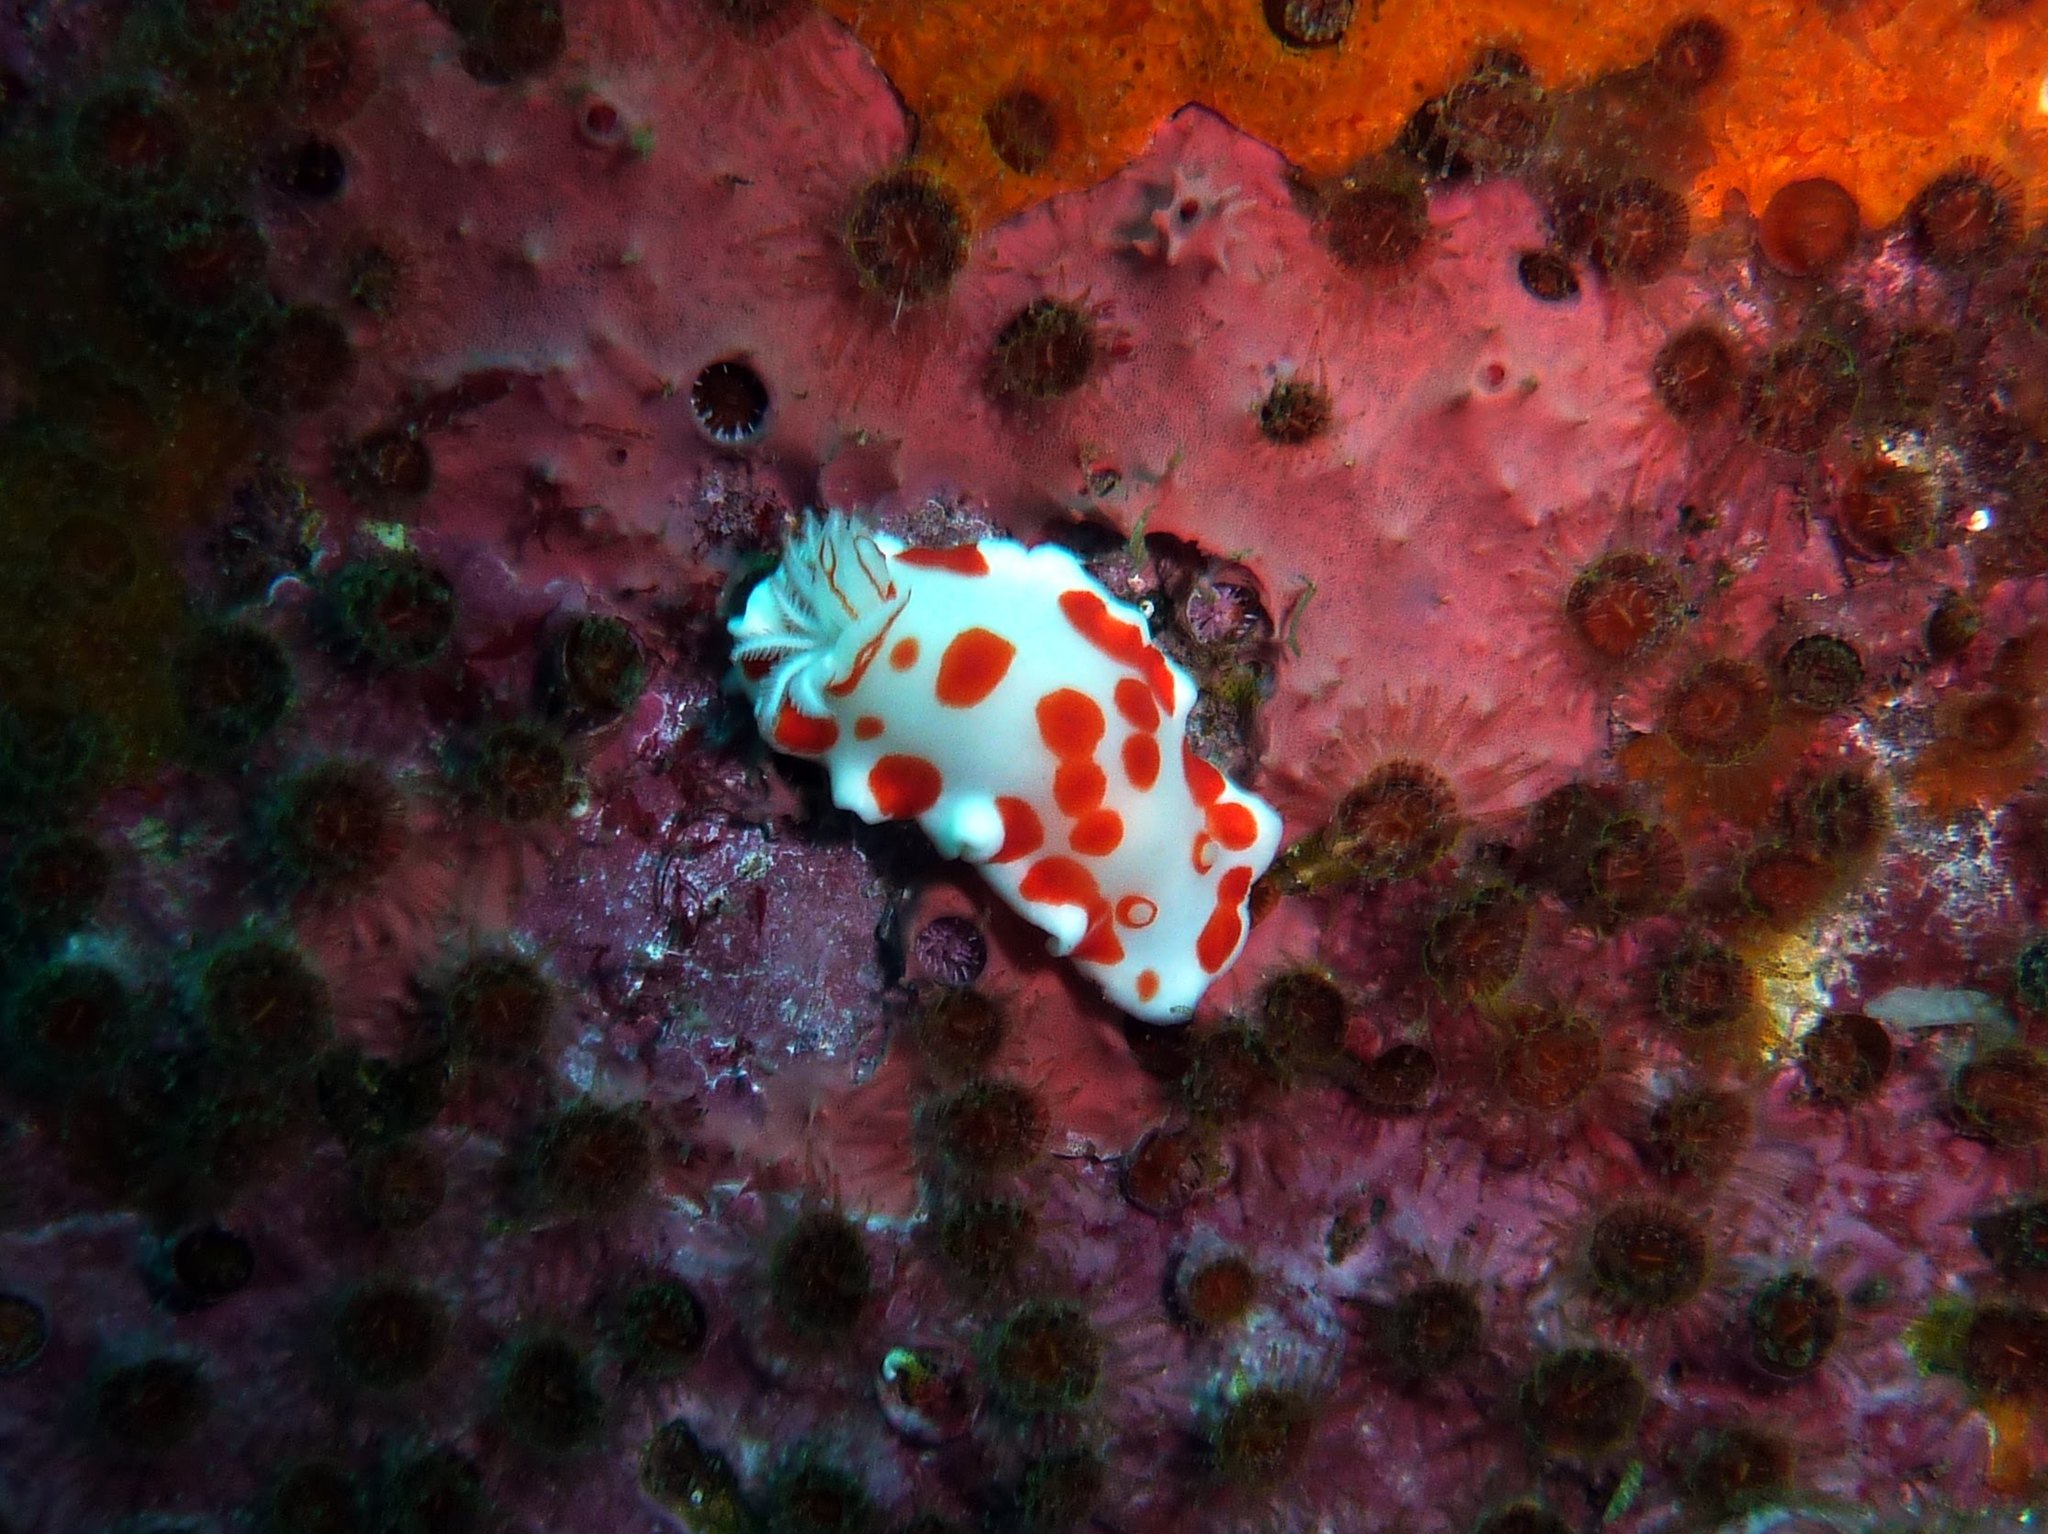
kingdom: Animalia
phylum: Mollusca
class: Gastropoda
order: Nudibranchia
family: Chromodorididae
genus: Goniobranchus
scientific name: Goniobranchus tasmaniensis
